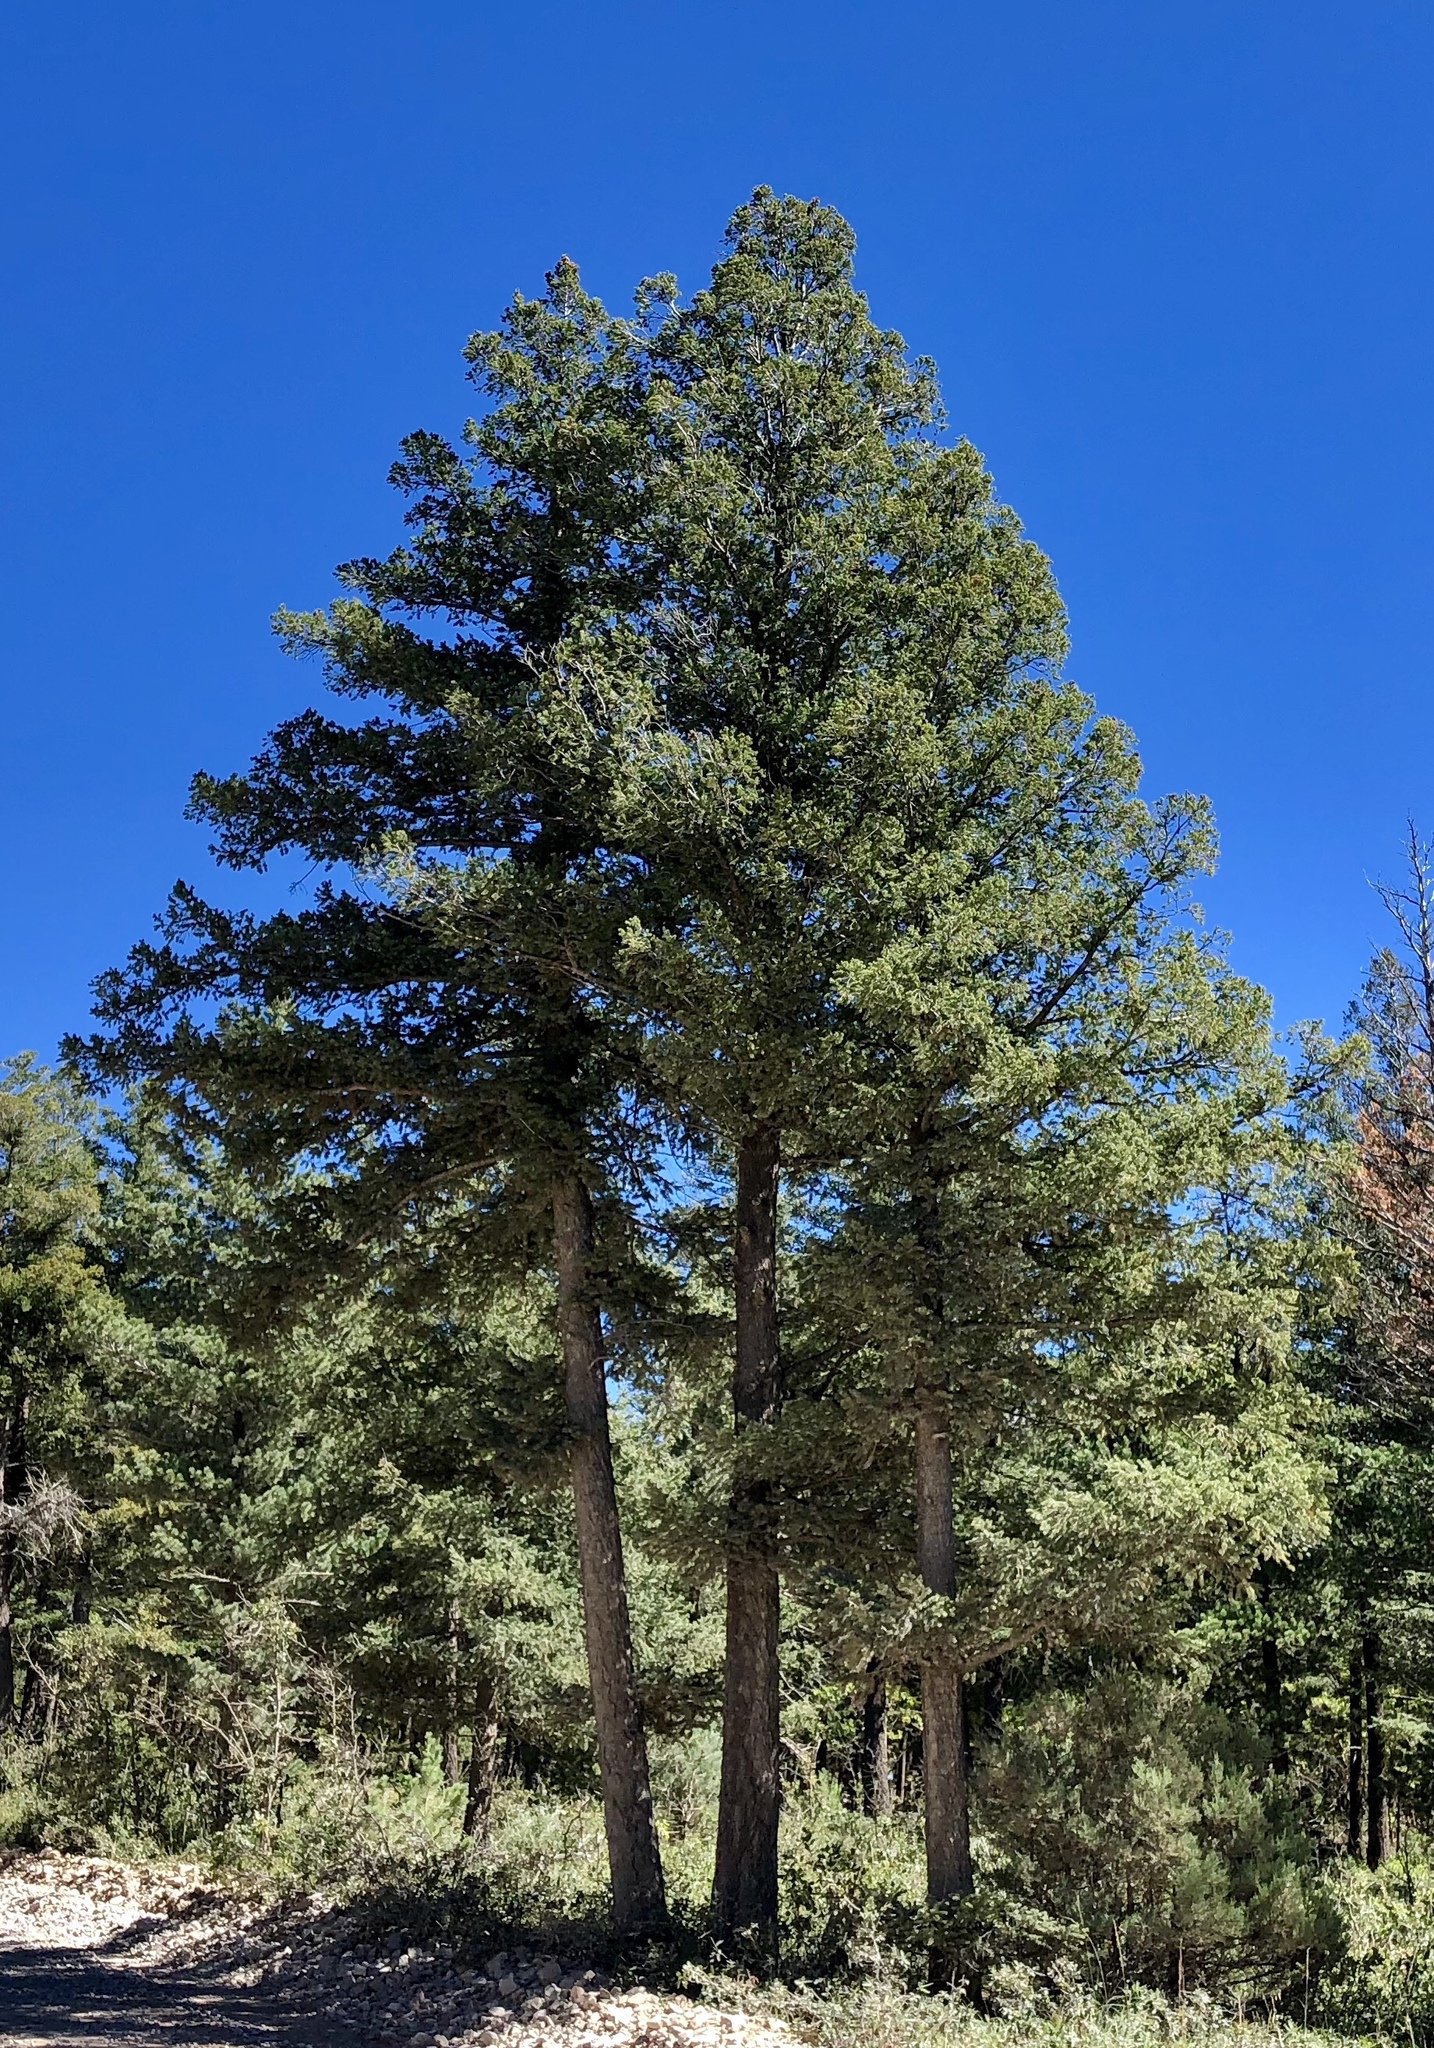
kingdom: Plantae
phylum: Tracheophyta
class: Pinopsida
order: Pinales
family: Pinaceae
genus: Pseudotsuga
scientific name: Pseudotsuga menziesii
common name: Douglas fir
